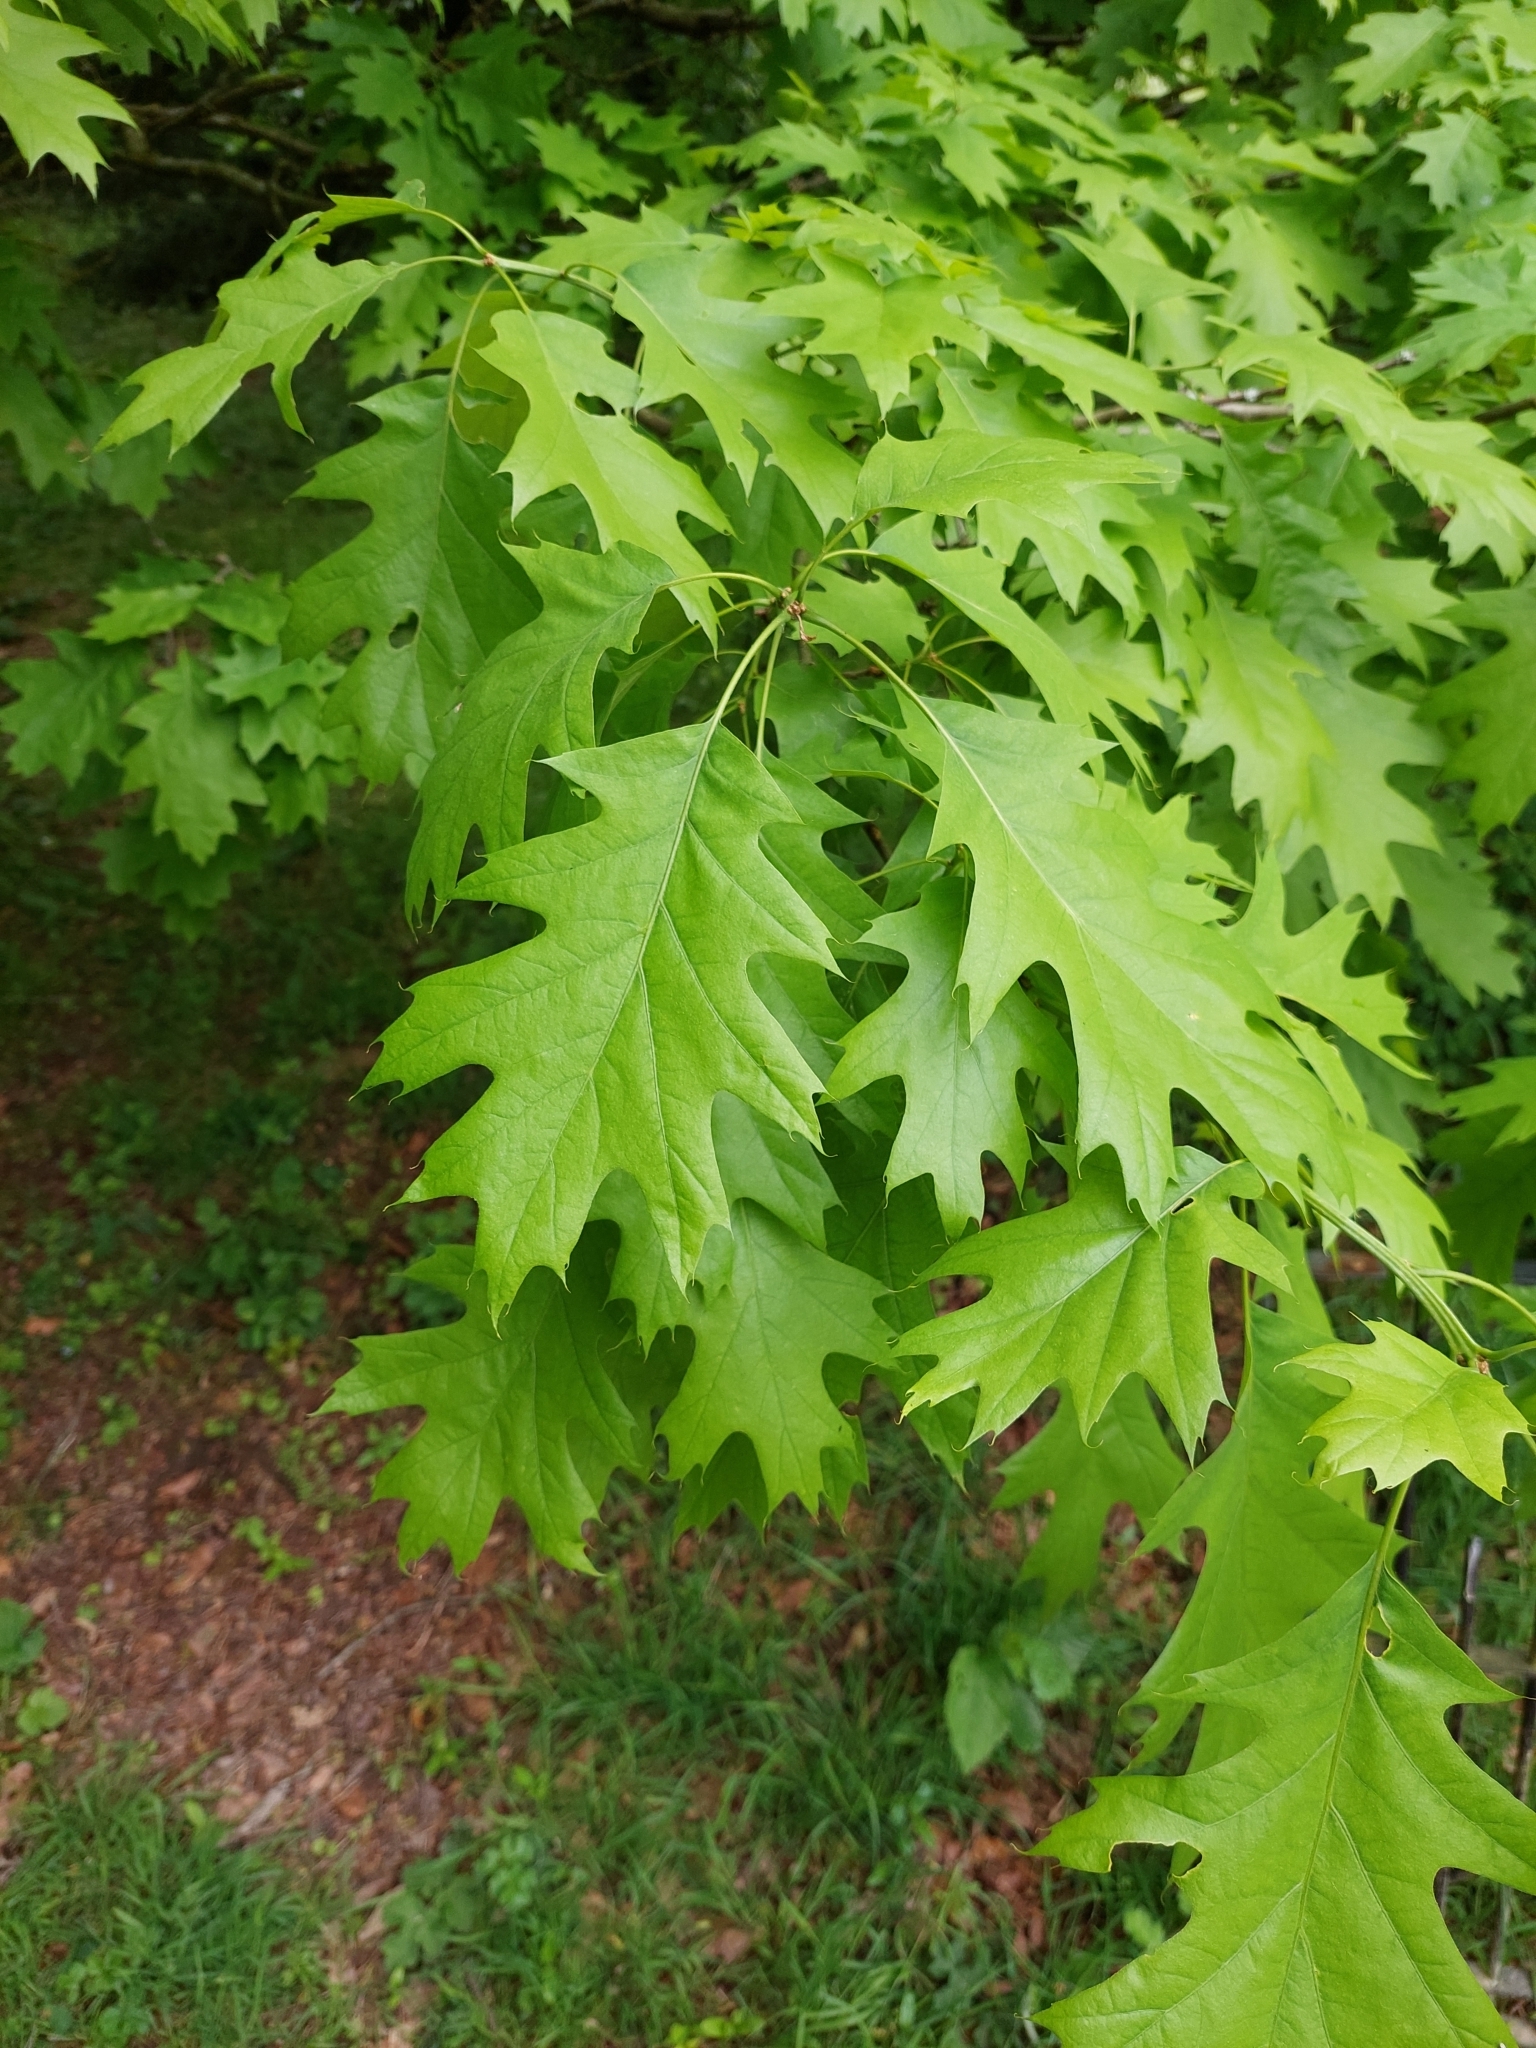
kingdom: Plantae
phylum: Tracheophyta
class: Magnoliopsida
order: Fagales
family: Fagaceae
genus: Quercus
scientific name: Quercus rubra
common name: Red oak
